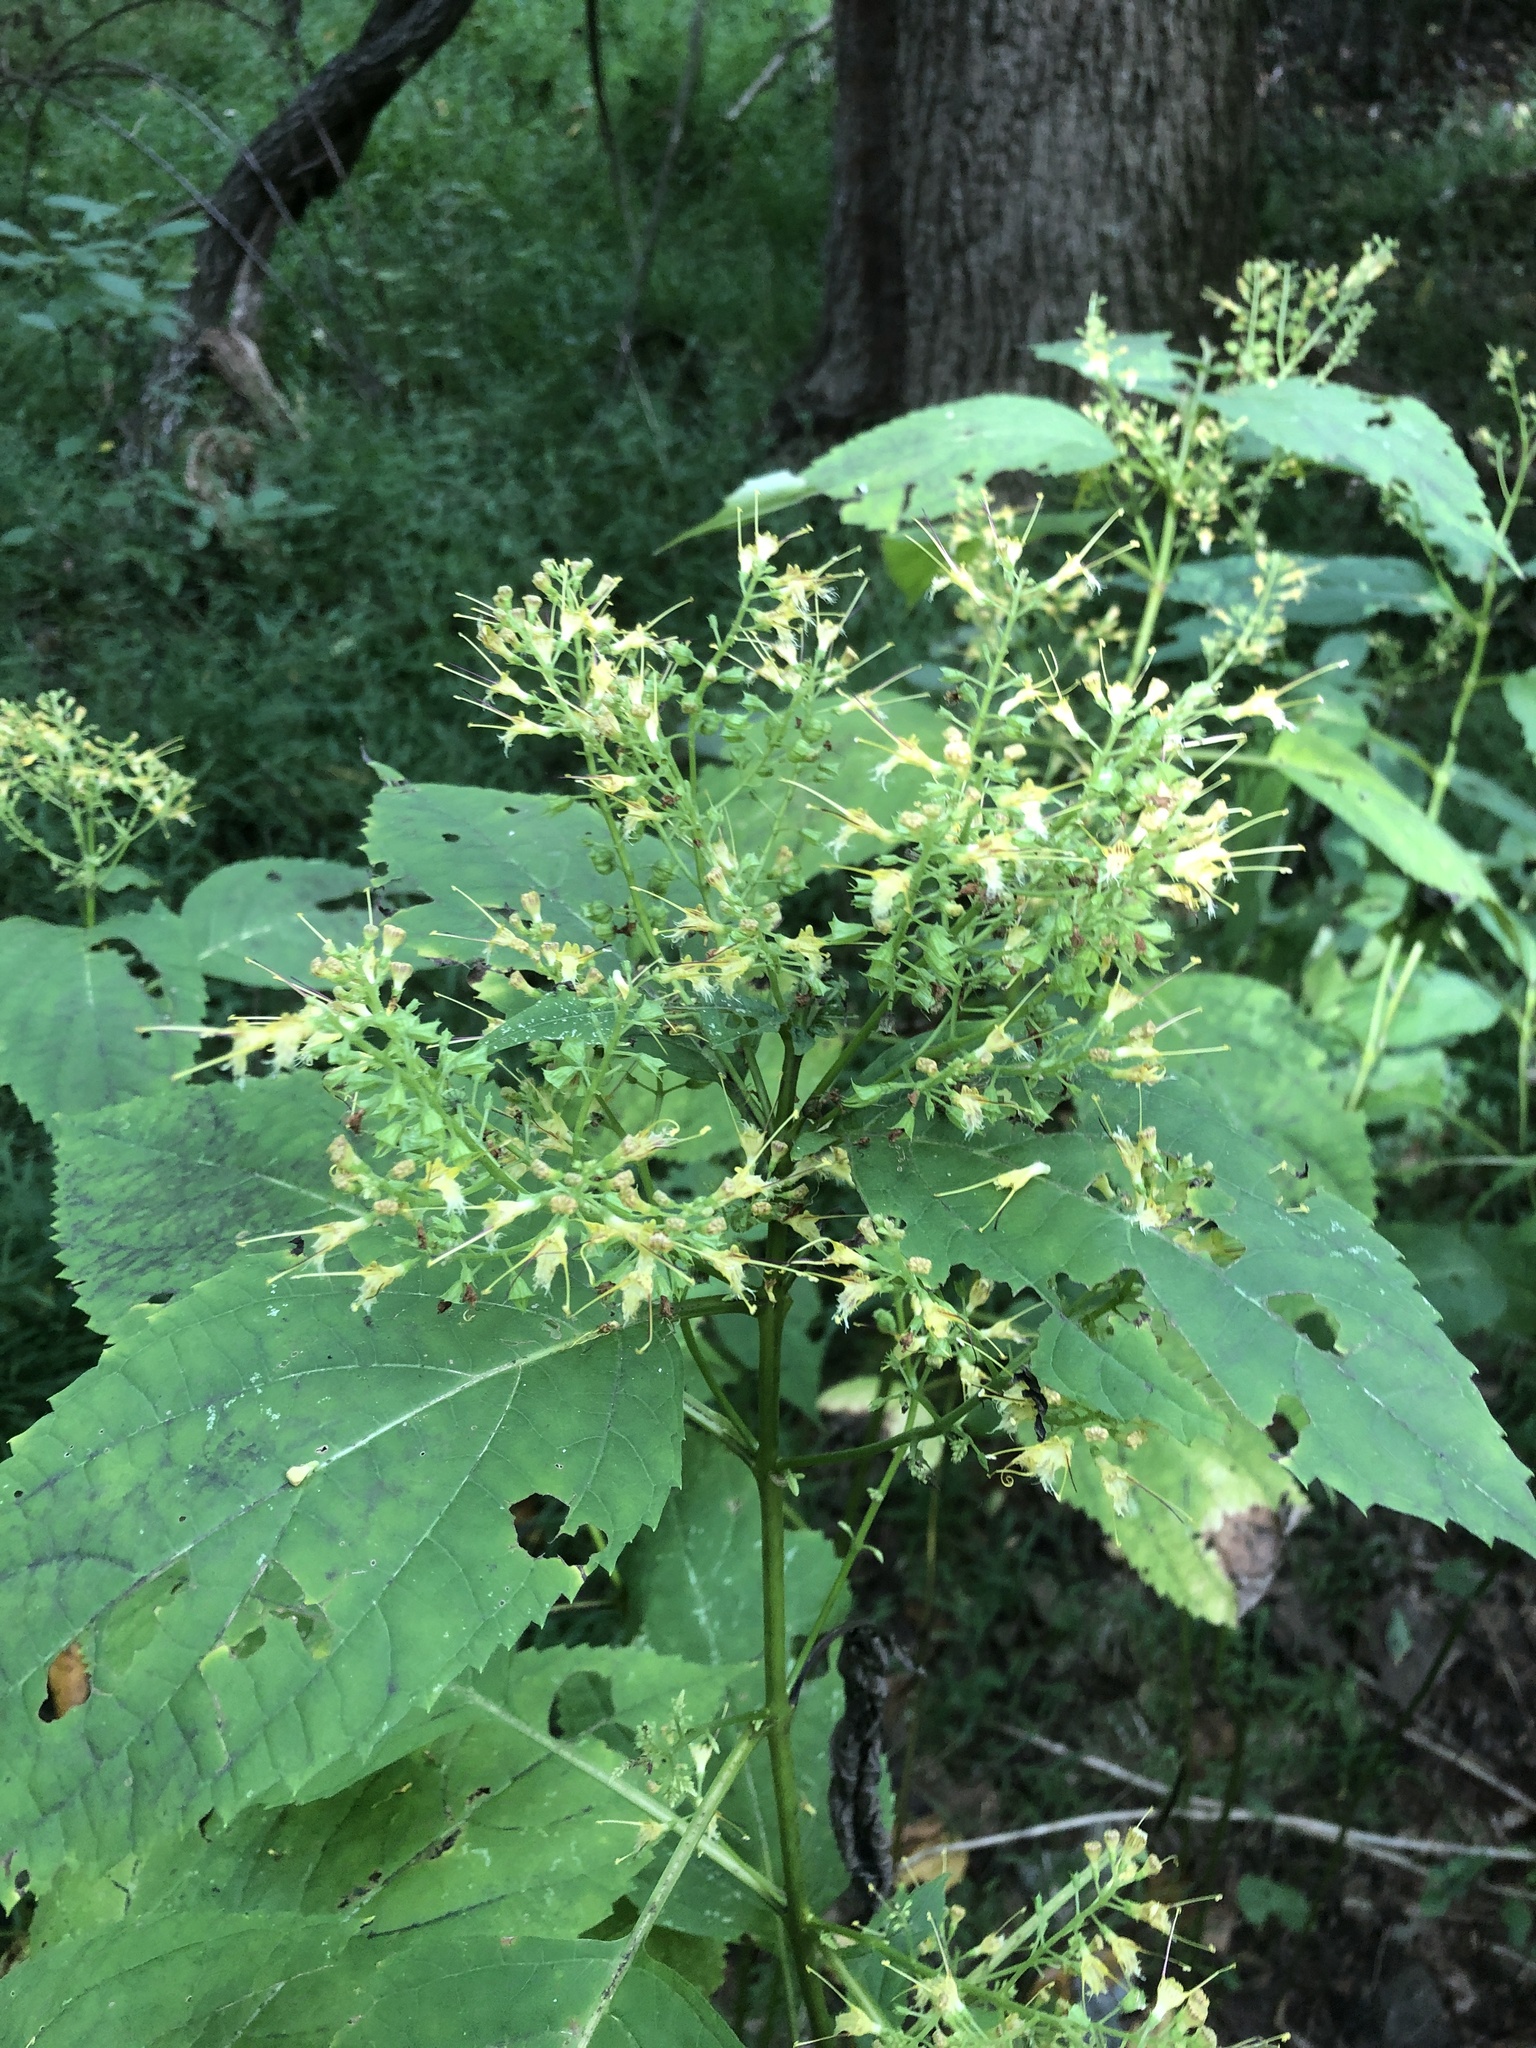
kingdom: Plantae
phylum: Tracheophyta
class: Magnoliopsida
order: Lamiales
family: Lamiaceae
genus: Collinsonia
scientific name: Collinsonia canadensis
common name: Northern horsebalm
